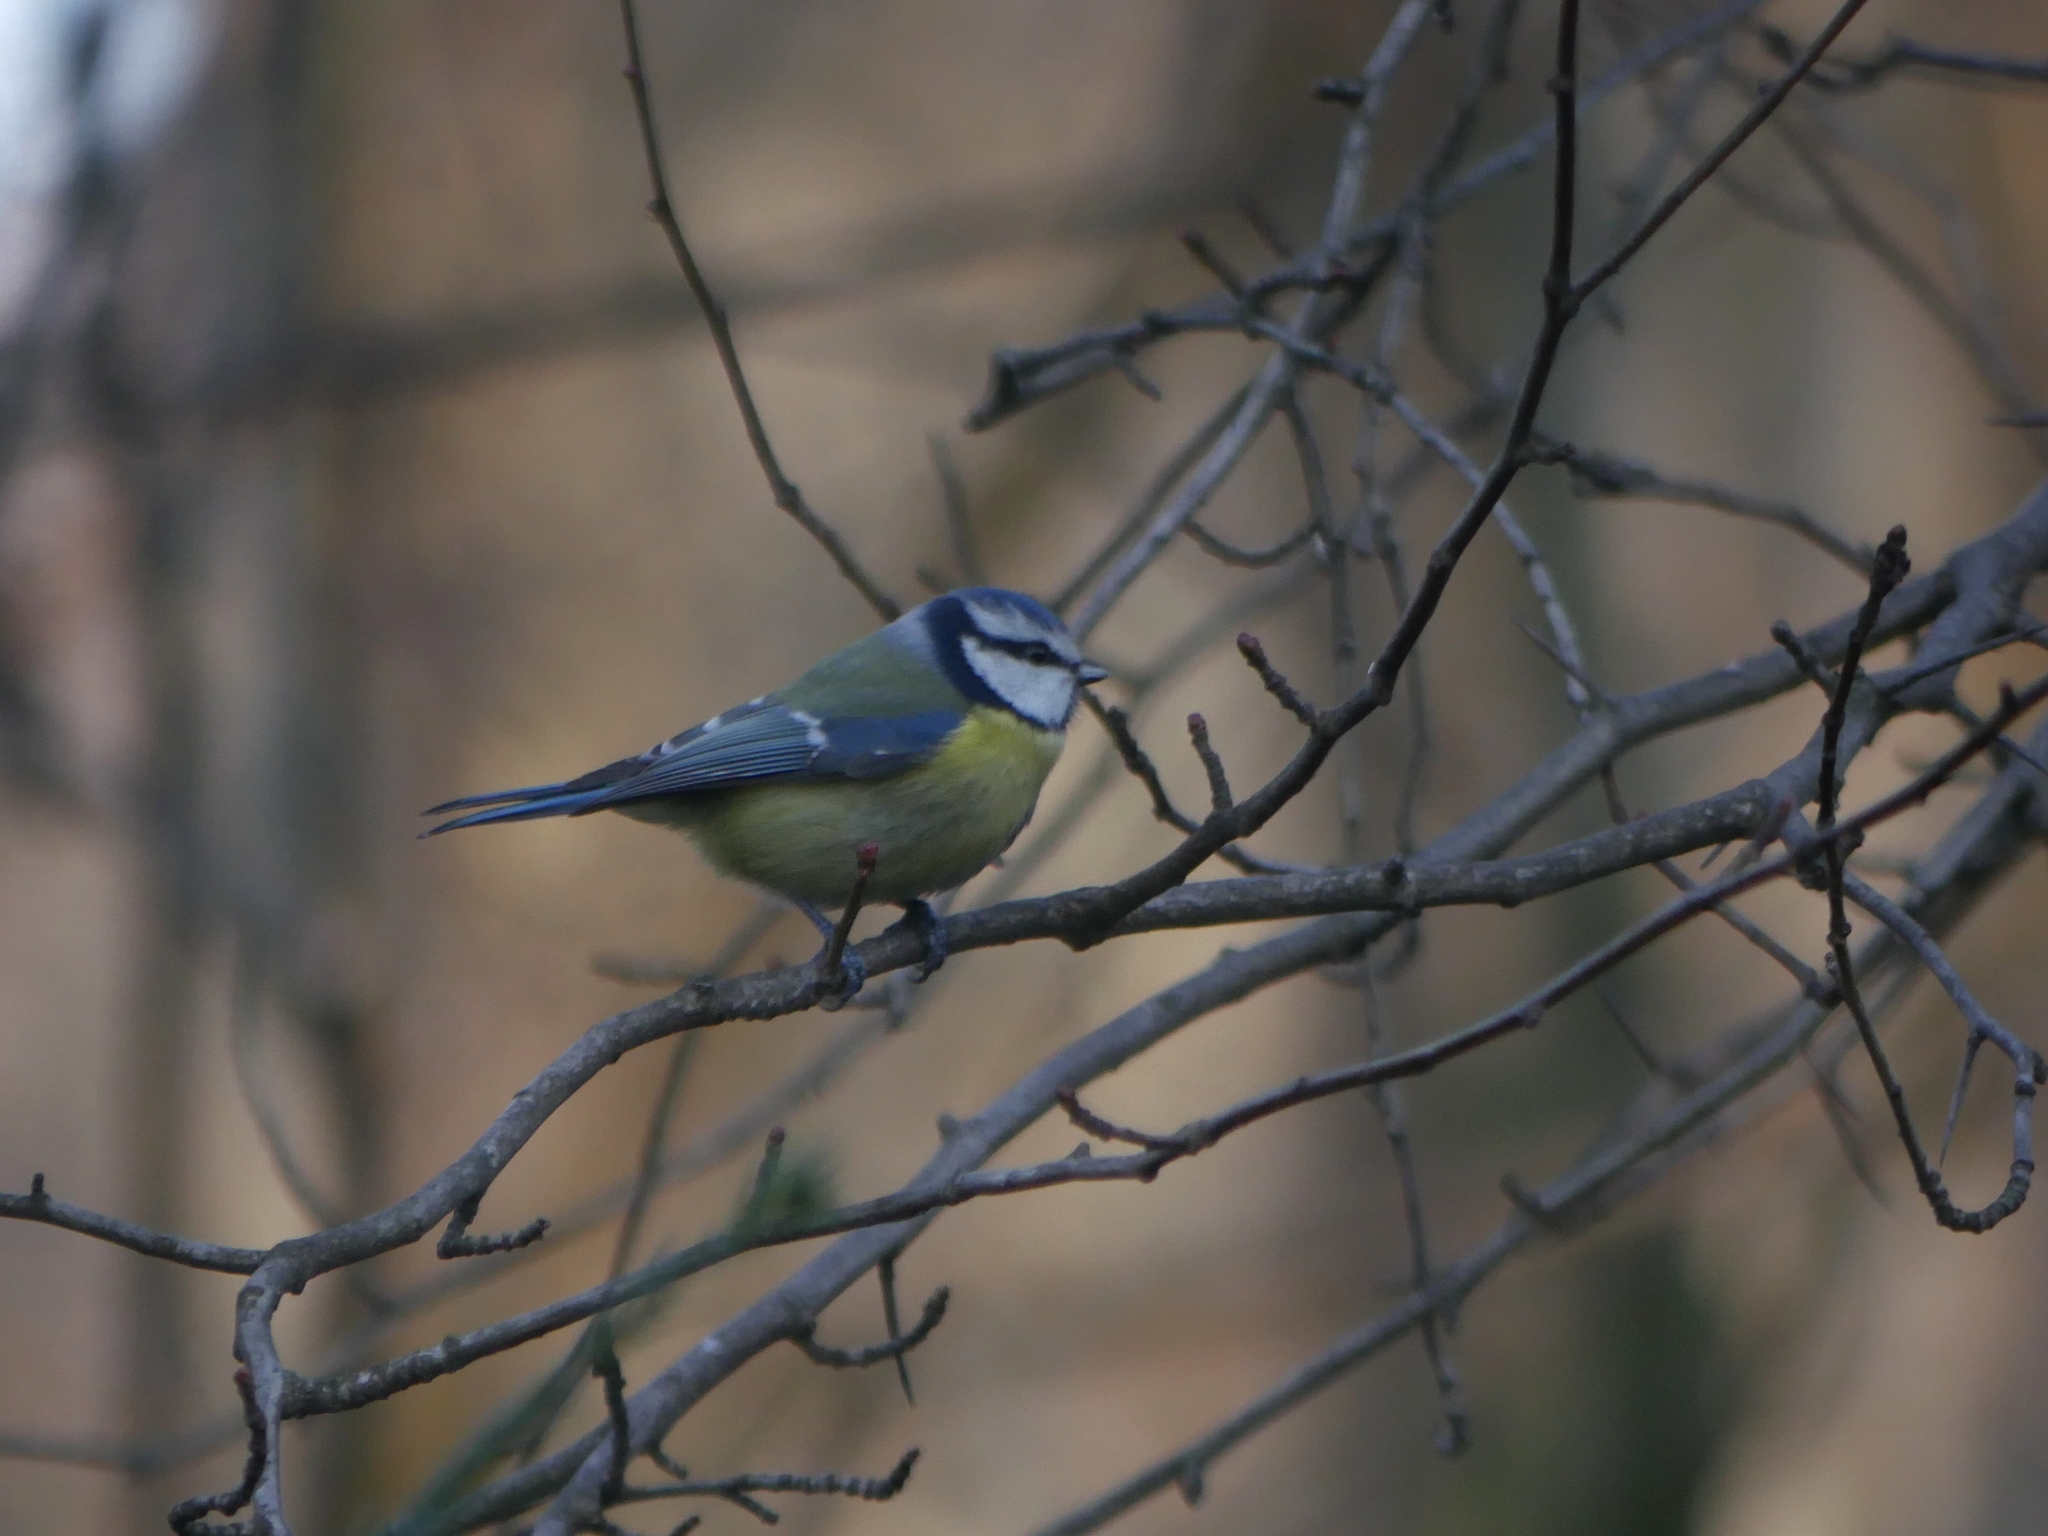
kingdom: Animalia
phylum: Chordata
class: Aves
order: Passeriformes
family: Paridae
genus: Cyanistes
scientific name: Cyanistes caeruleus
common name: Eurasian blue tit
